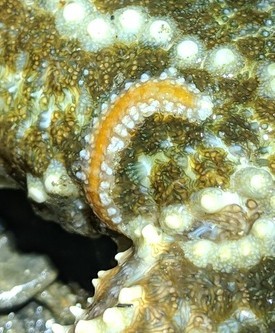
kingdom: Animalia
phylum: Annelida
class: Polychaeta
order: Phyllodocida
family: Polynoidae
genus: Arctonoe
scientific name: Arctonoe fragilis
